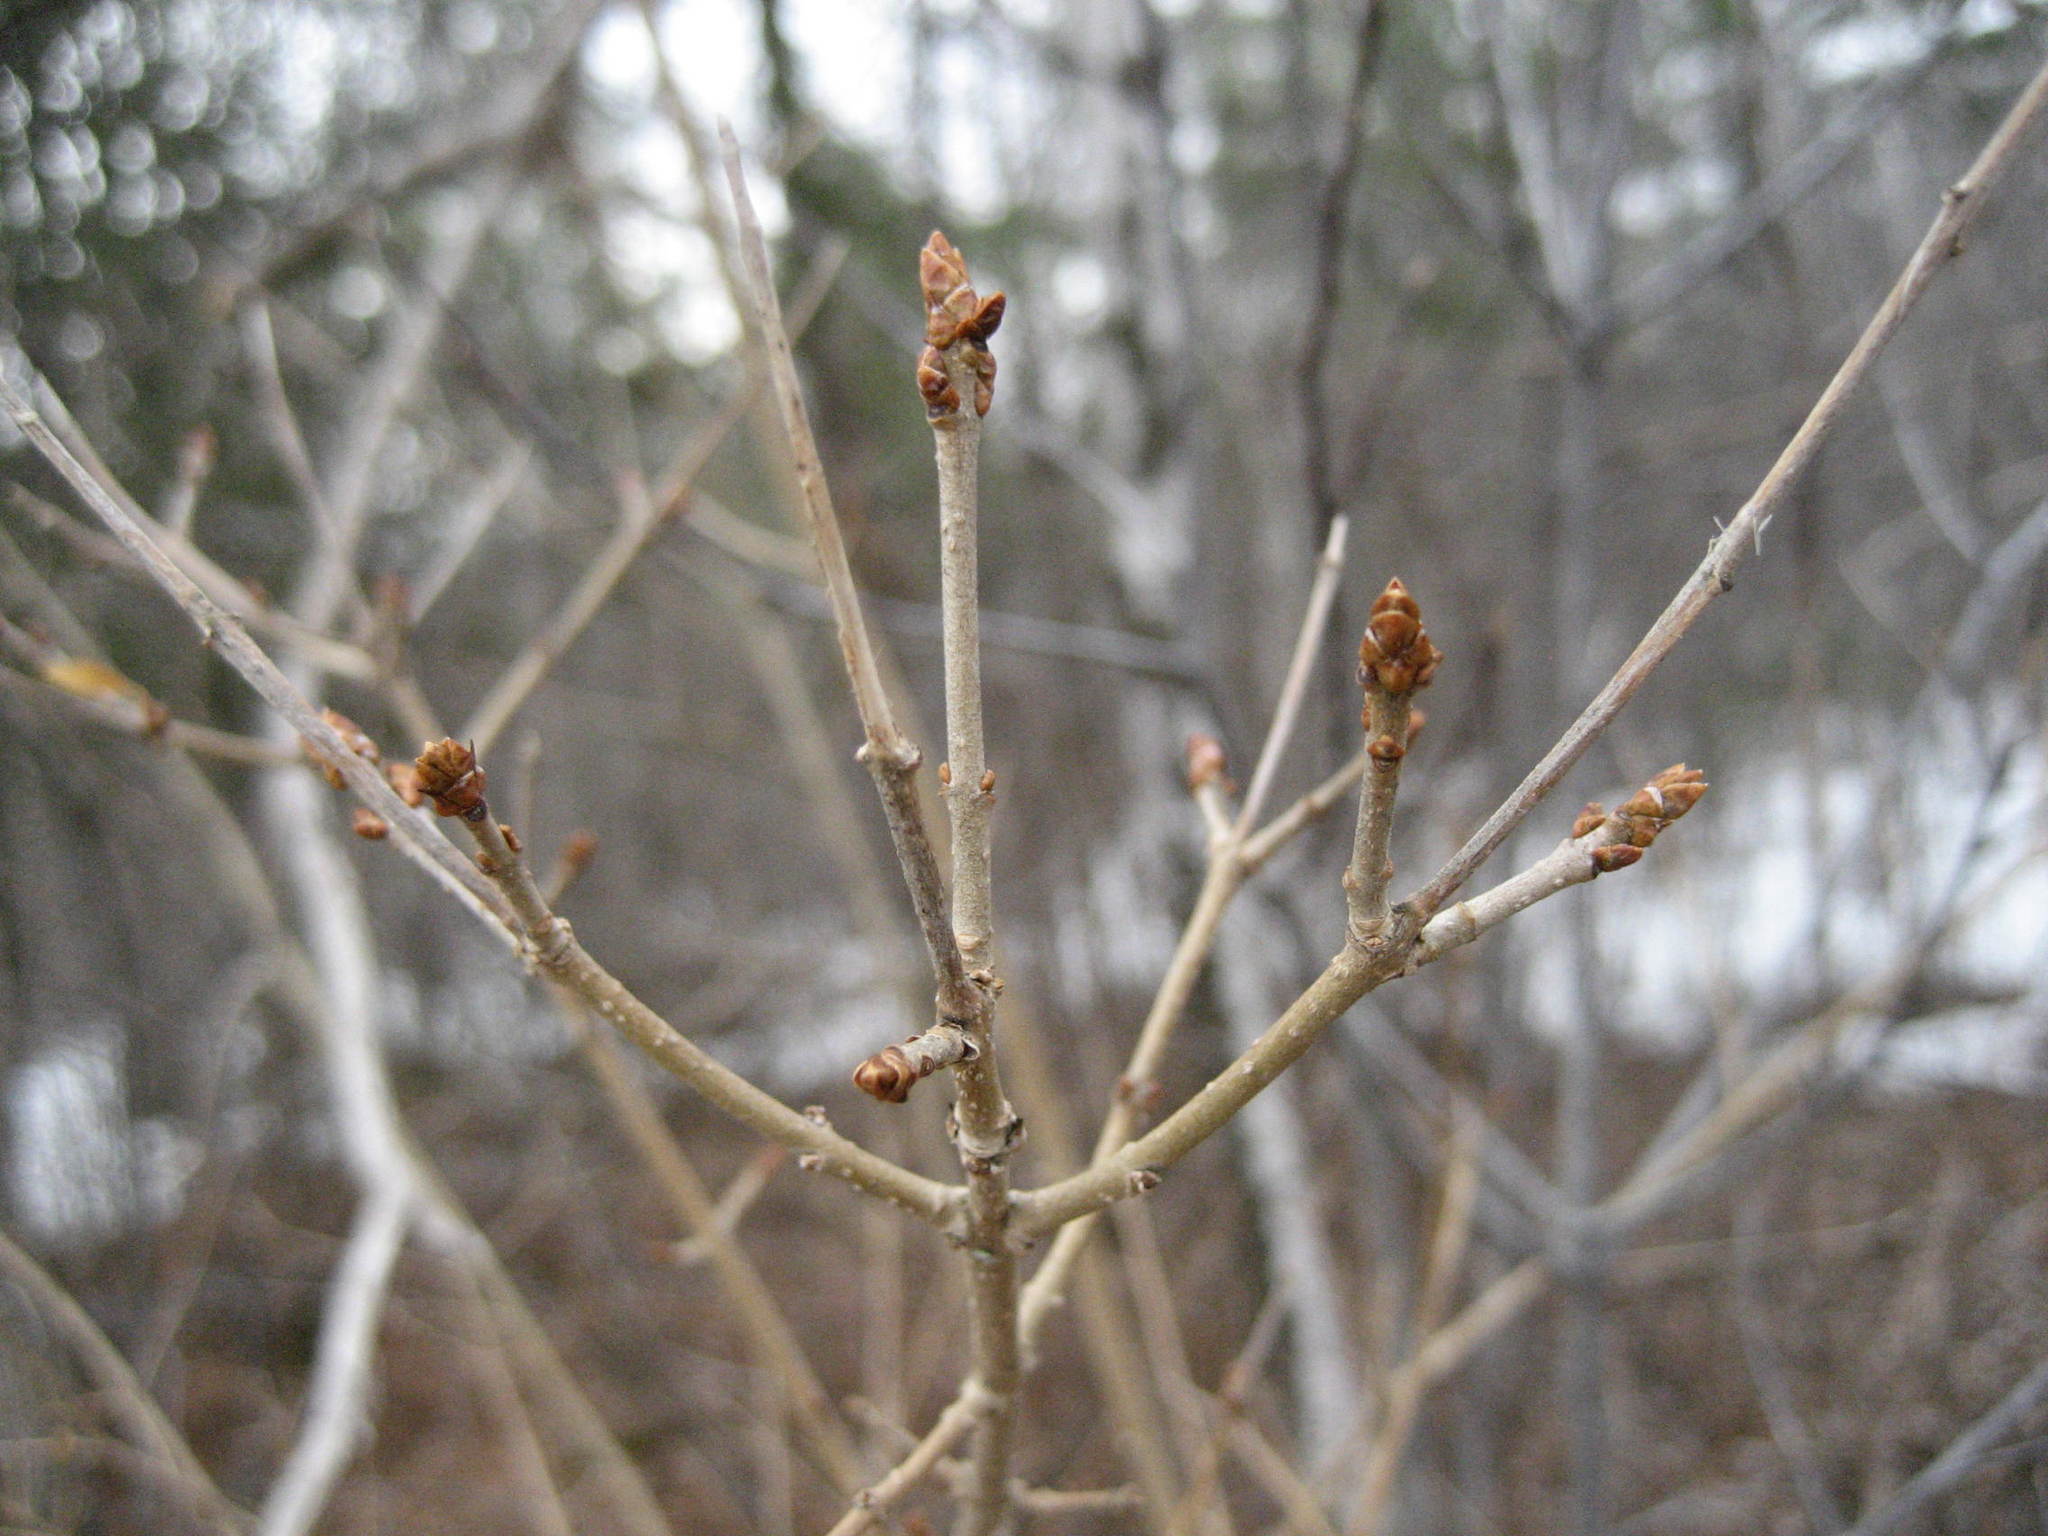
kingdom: Plantae
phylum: Tracheophyta
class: Magnoliopsida
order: Lamiales
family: Oleaceae
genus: Ligustrum
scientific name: Ligustrum vulgare
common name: Wild privet
